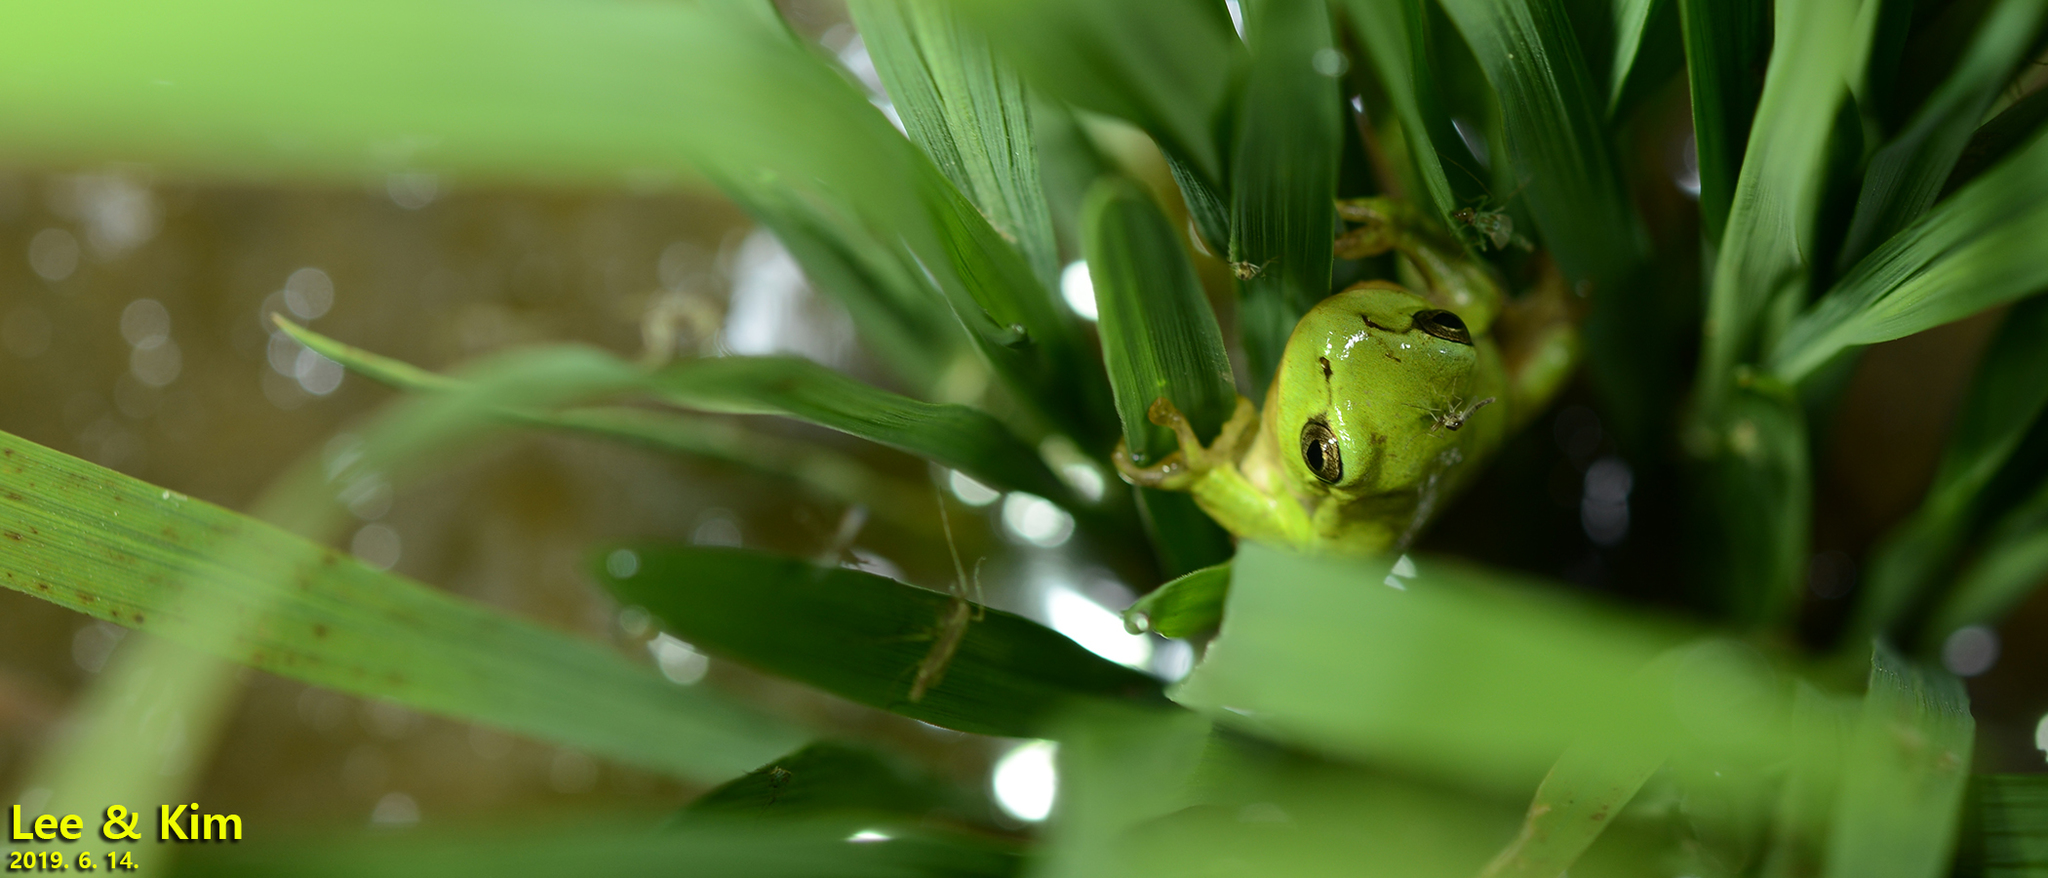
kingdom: Animalia
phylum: Chordata
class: Amphibia
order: Anura
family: Hylidae
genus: Dryophytes
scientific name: Dryophytes immaculatus
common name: North china treefrog
